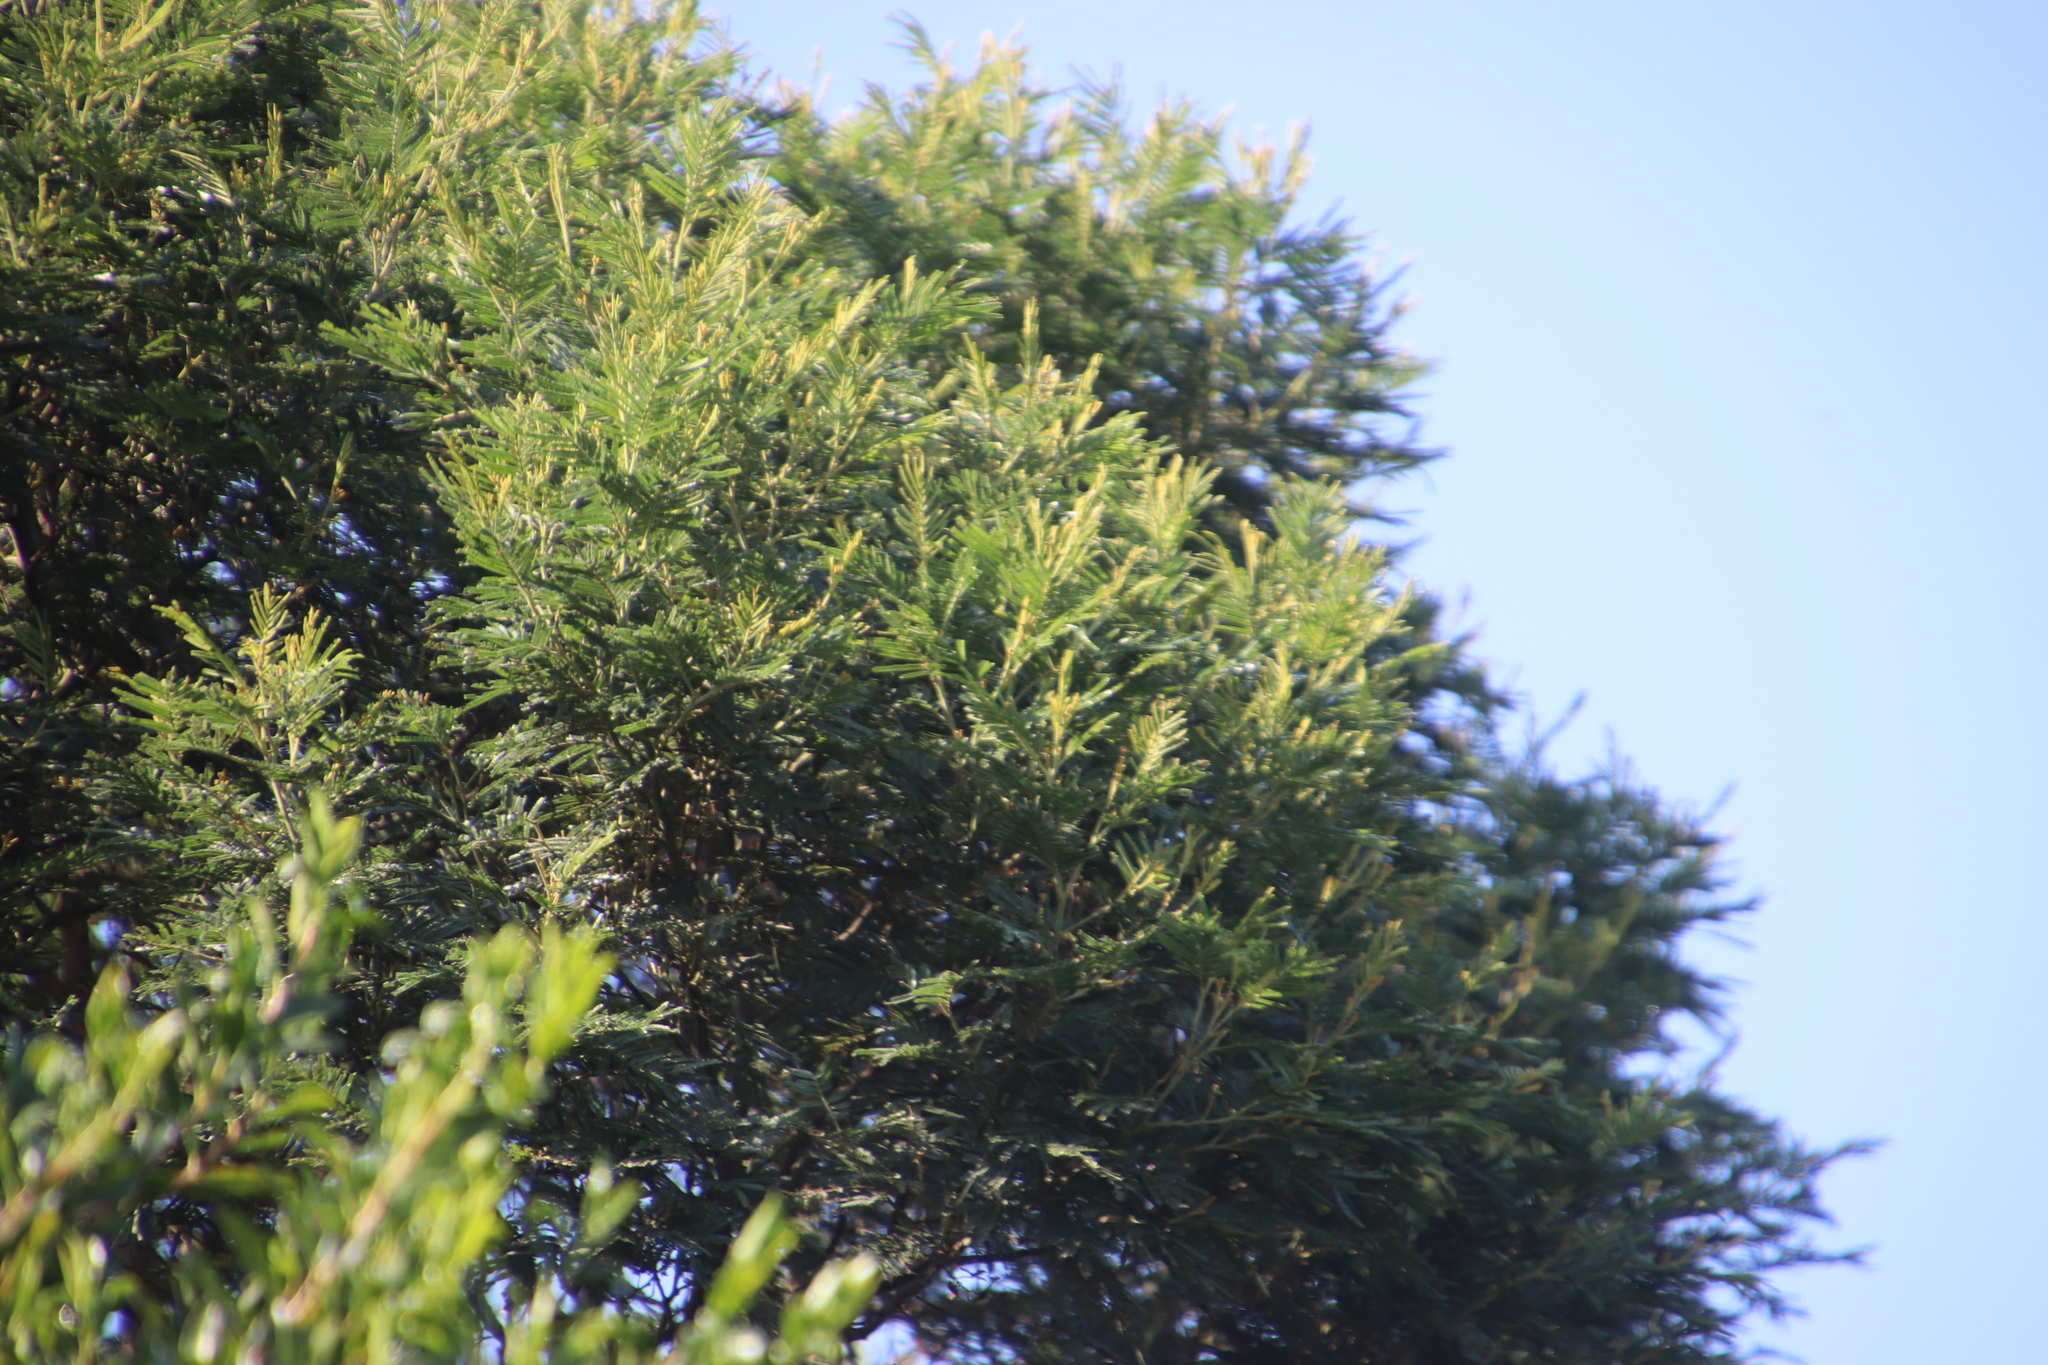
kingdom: Plantae
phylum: Tracheophyta
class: Magnoliopsida
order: Fabales
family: Fabaceae
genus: Acacia
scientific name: Acacia dealbata
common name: Silver wattle
